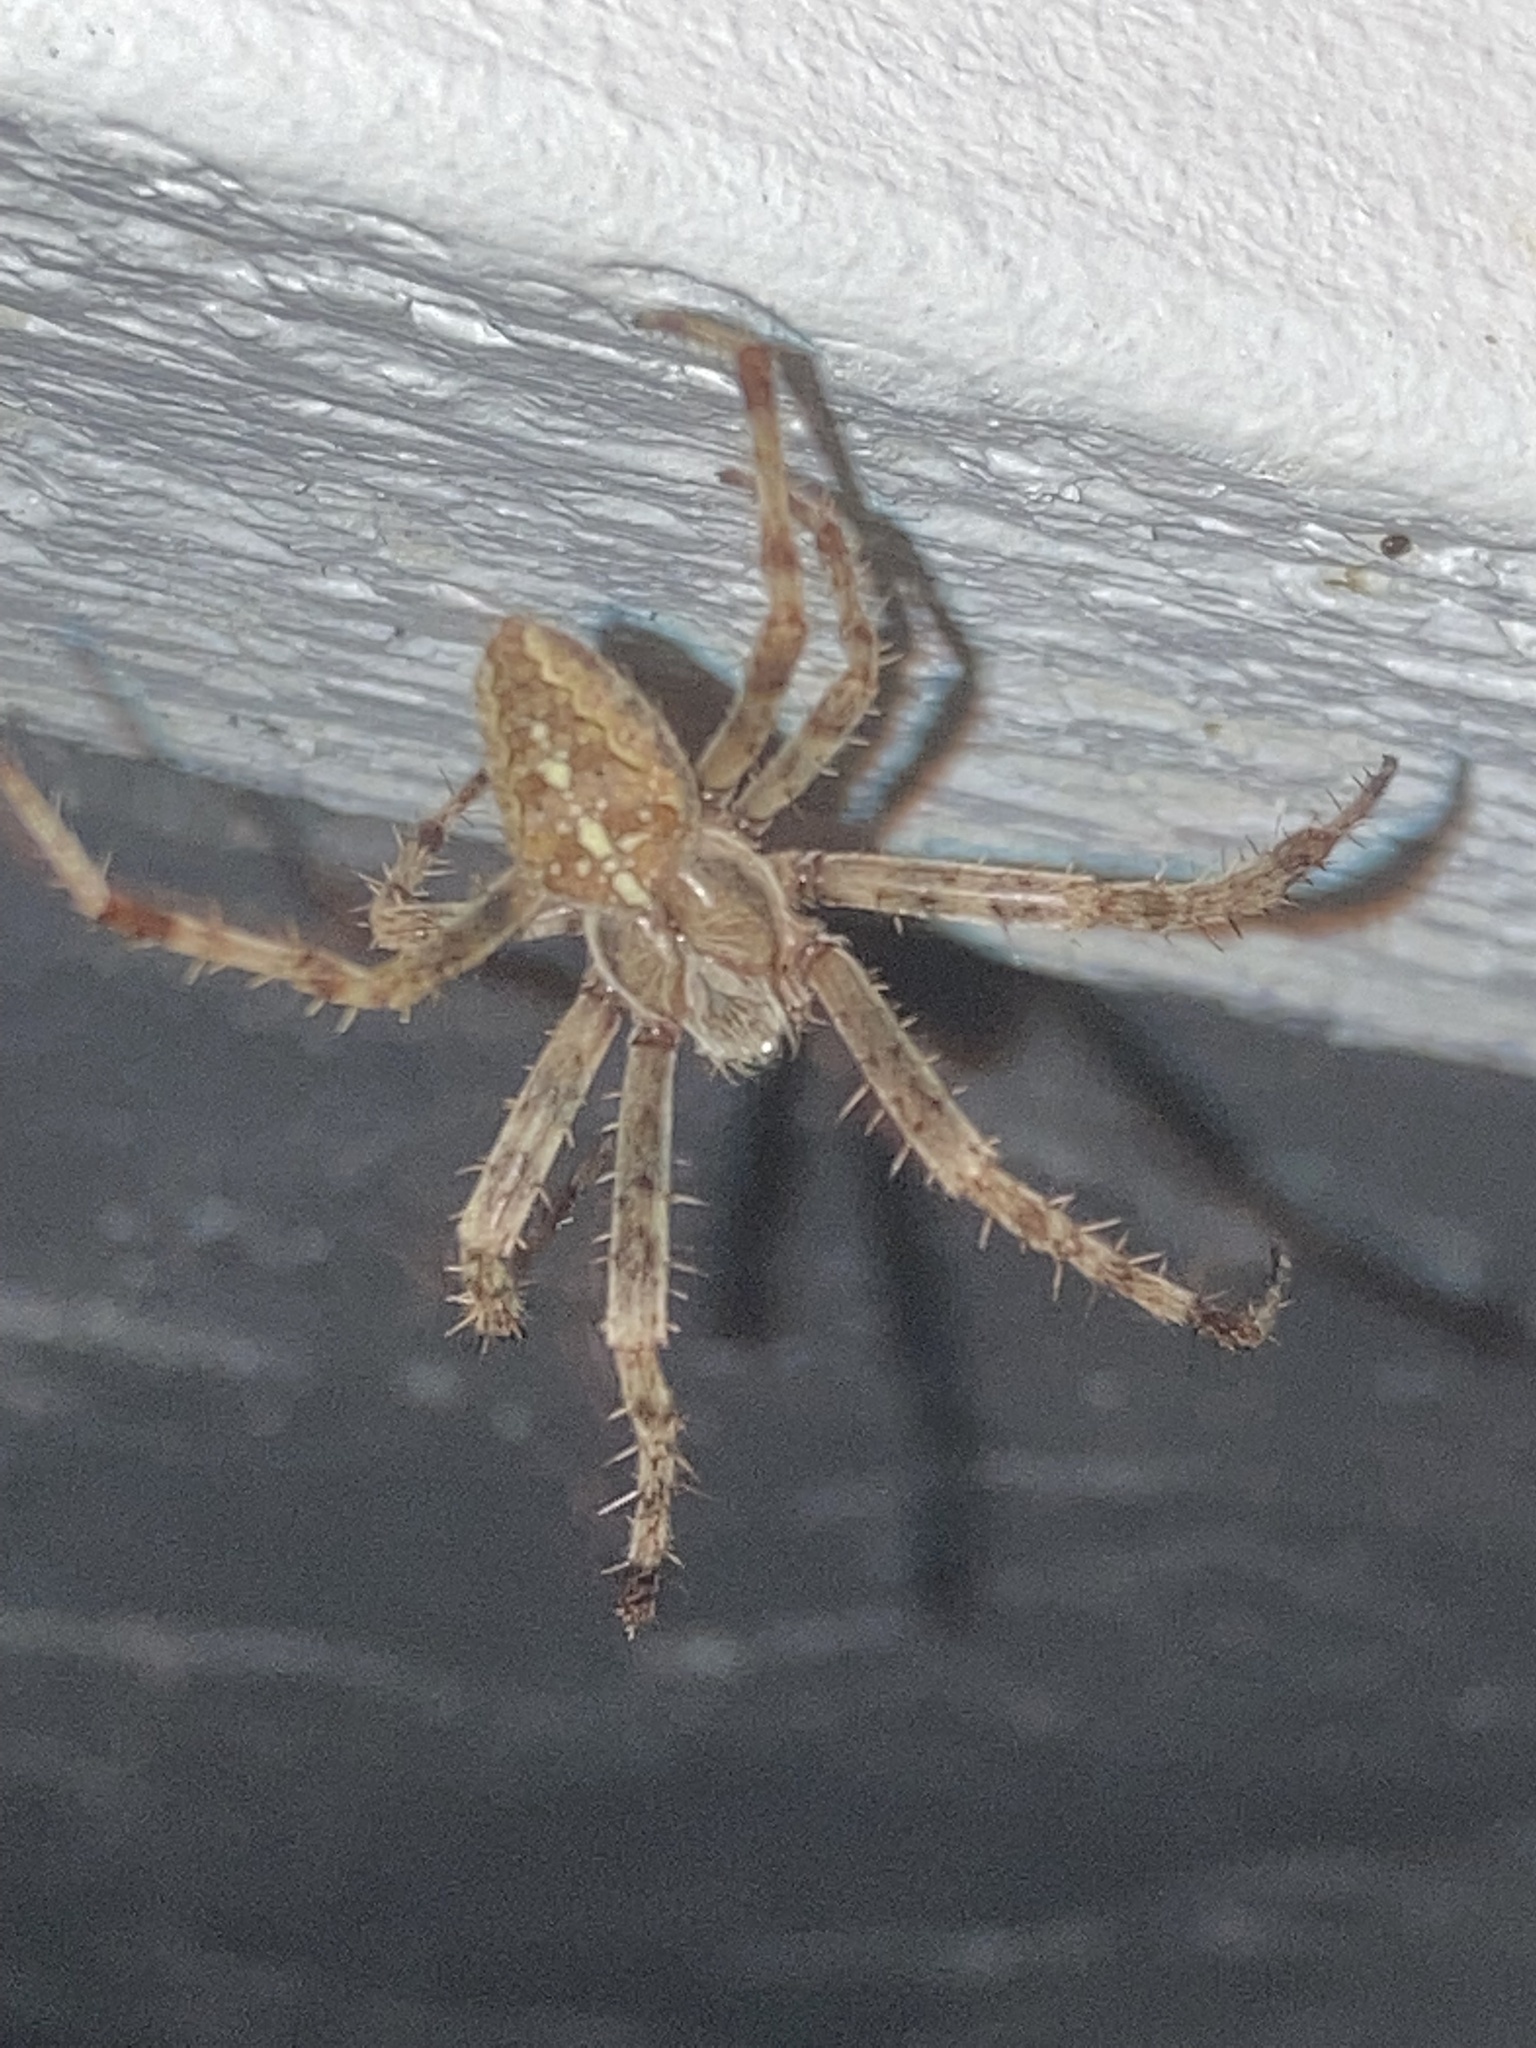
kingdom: Animalia
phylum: Arthropoda
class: Arachnida
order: Araneae
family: Araneidae
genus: Araneus
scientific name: Araneus diadematus
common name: Cross orbweaver
